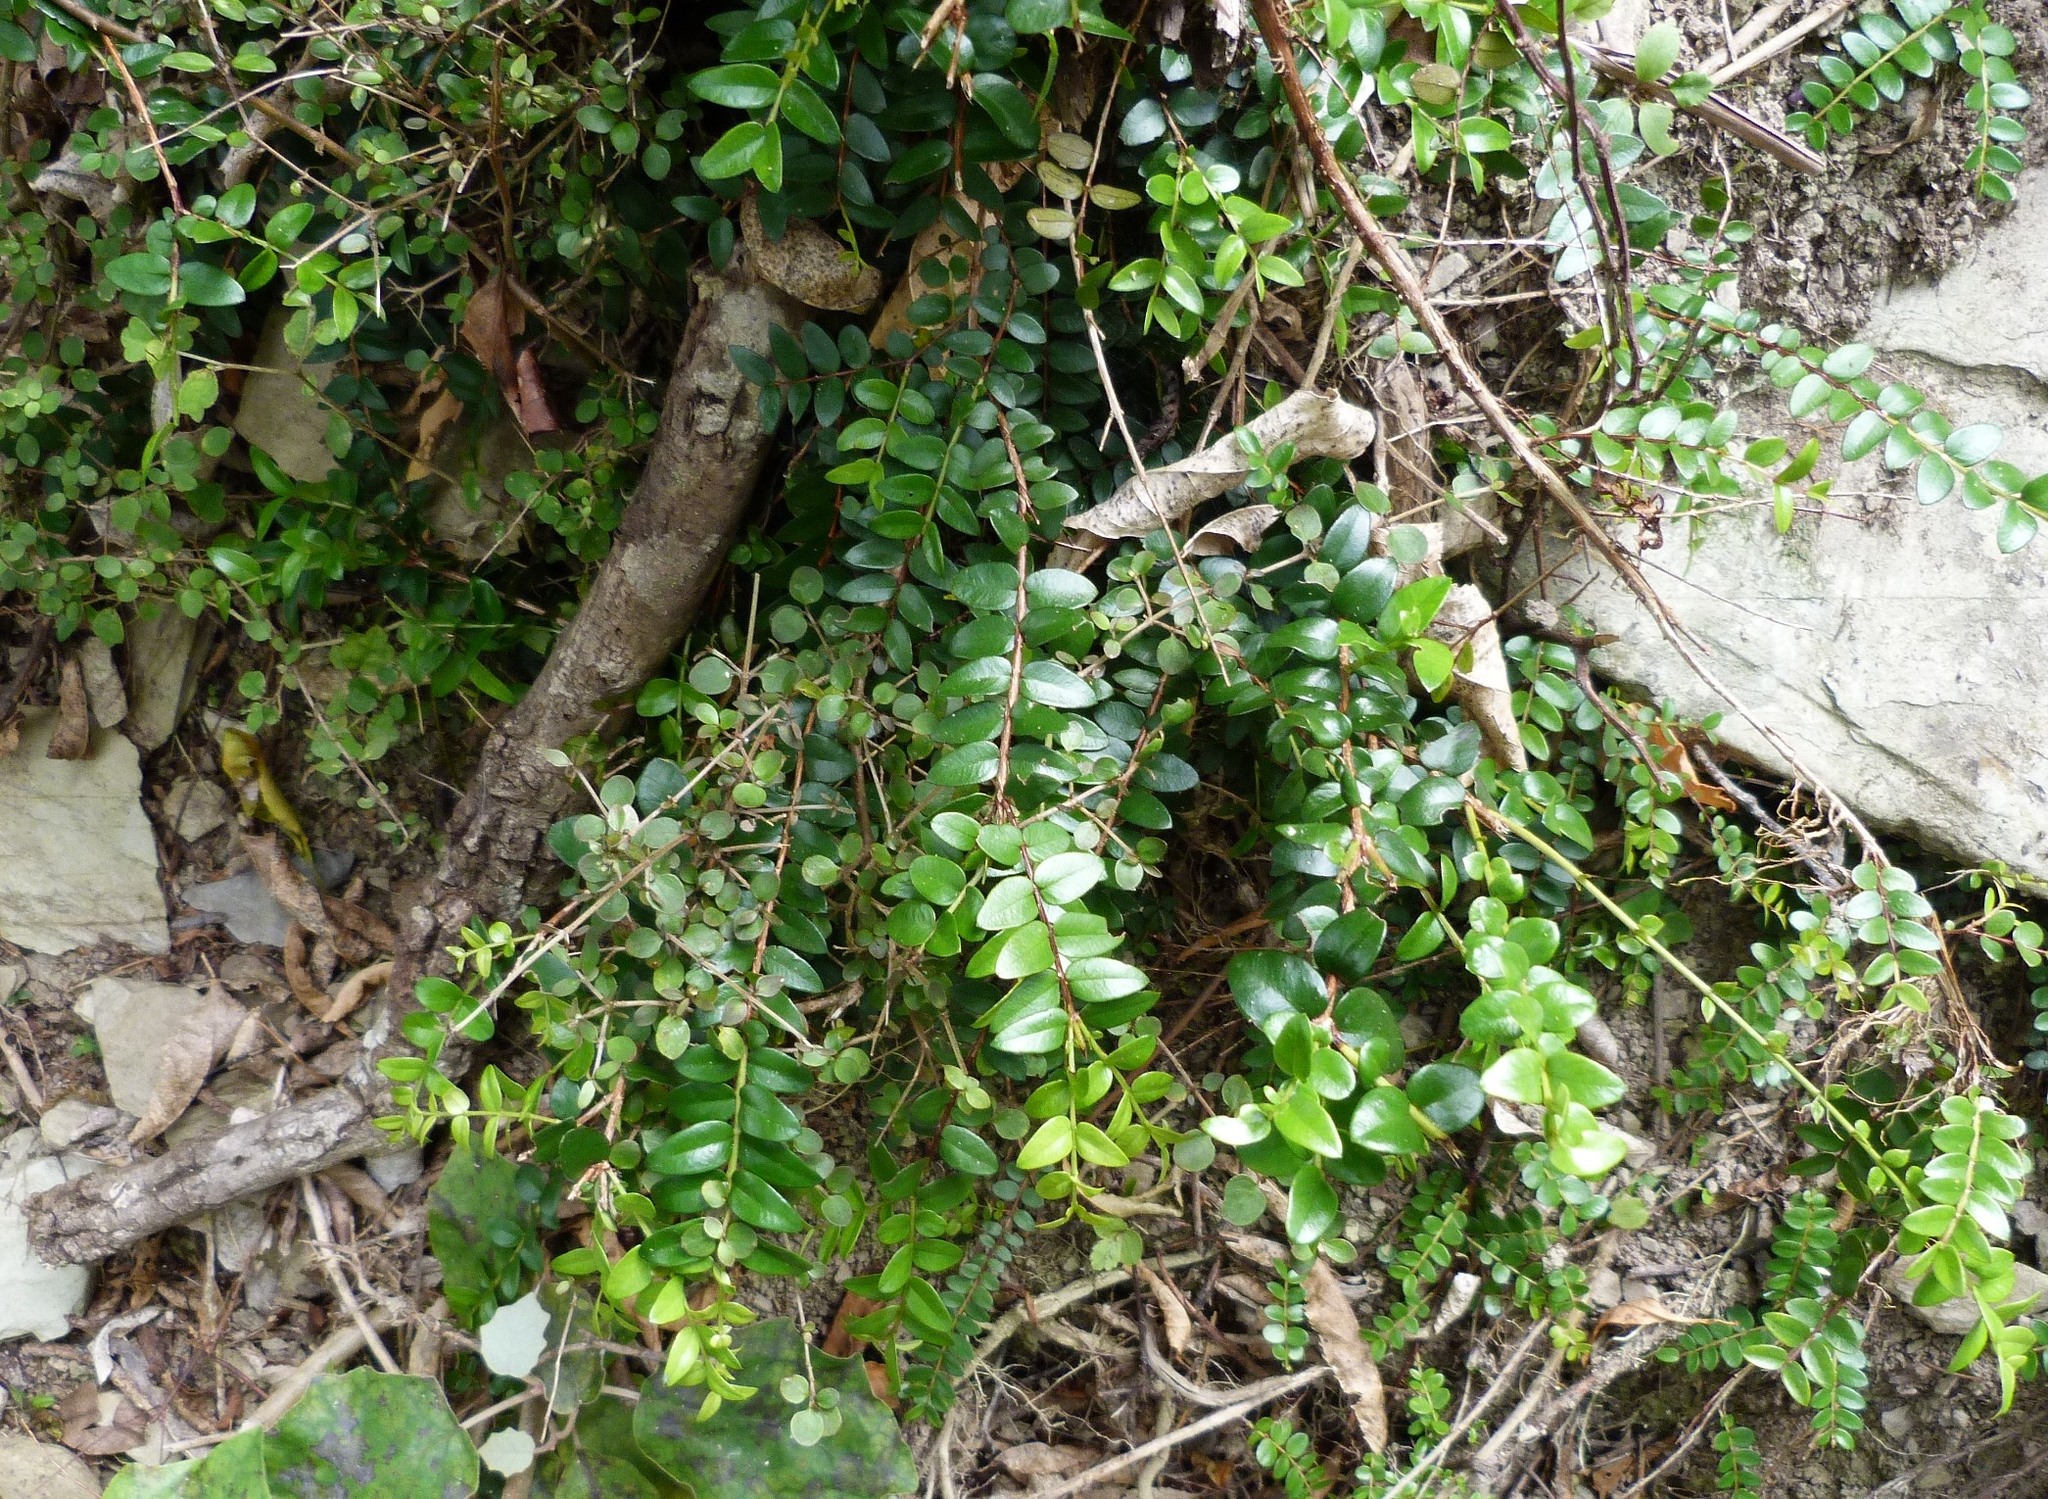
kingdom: Plantae
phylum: Tracheophyta
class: Magnoliopsida
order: Myrtales
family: Myrtaceae
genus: Metrosideros
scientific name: Metrosideros diffusa
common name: Small ratavine
